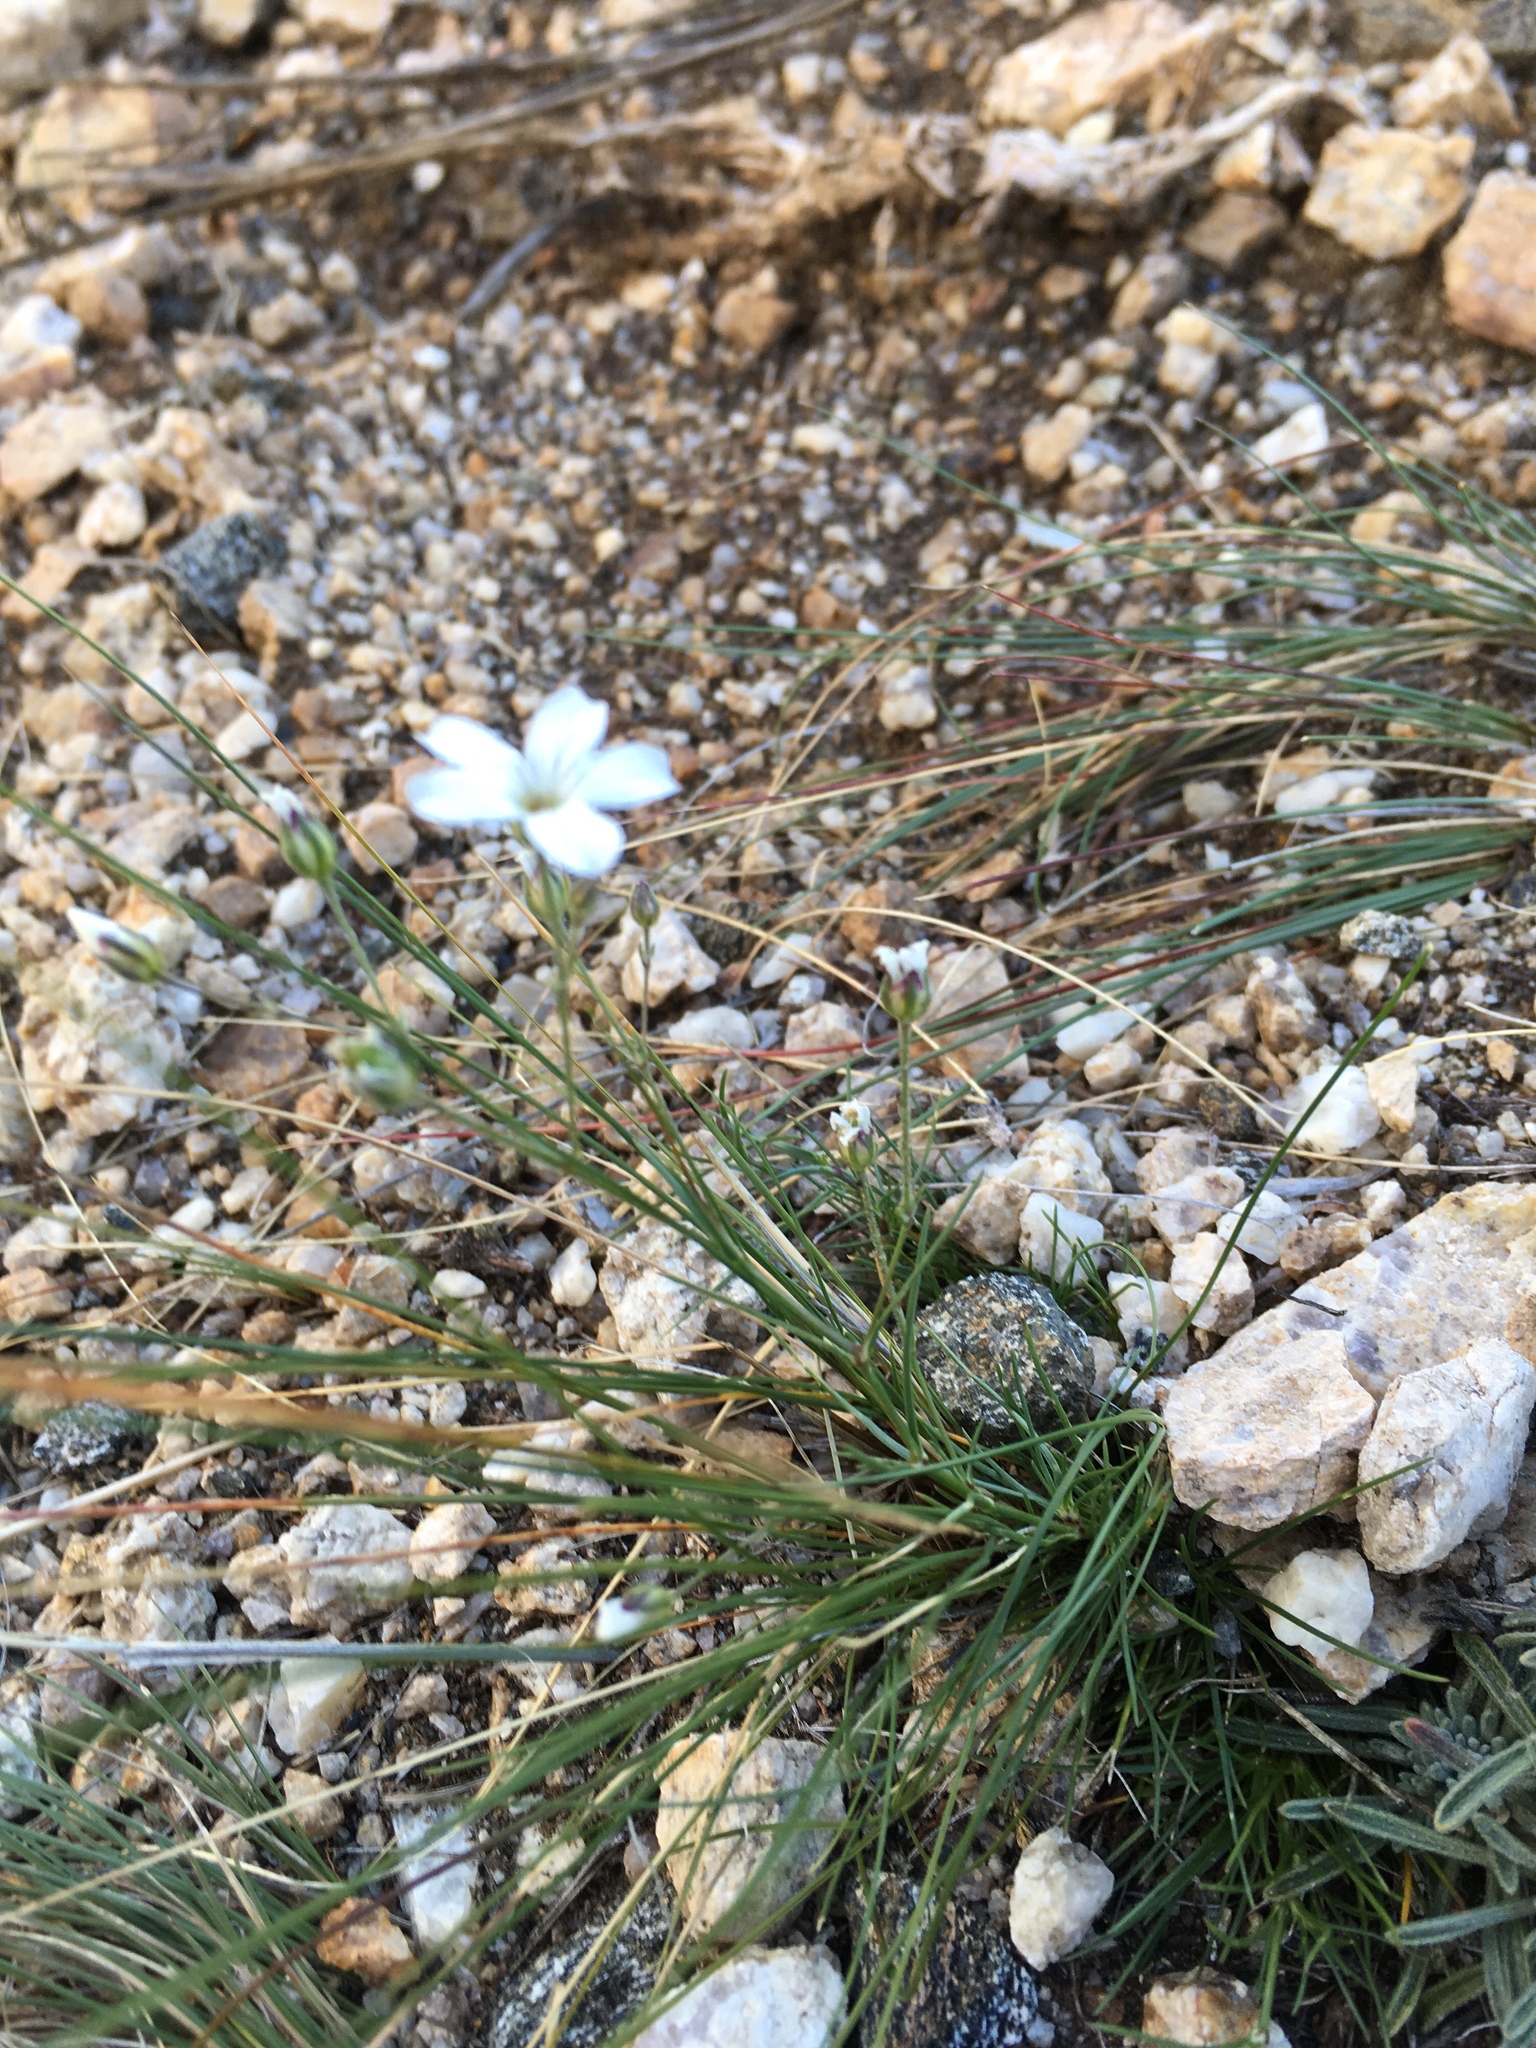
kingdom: Plantae
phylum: Tracheophyta
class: Magnoliopsida
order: Caryophyllales
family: Caryophyllaceae
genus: Eremogone
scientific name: Eremogone meyeri
